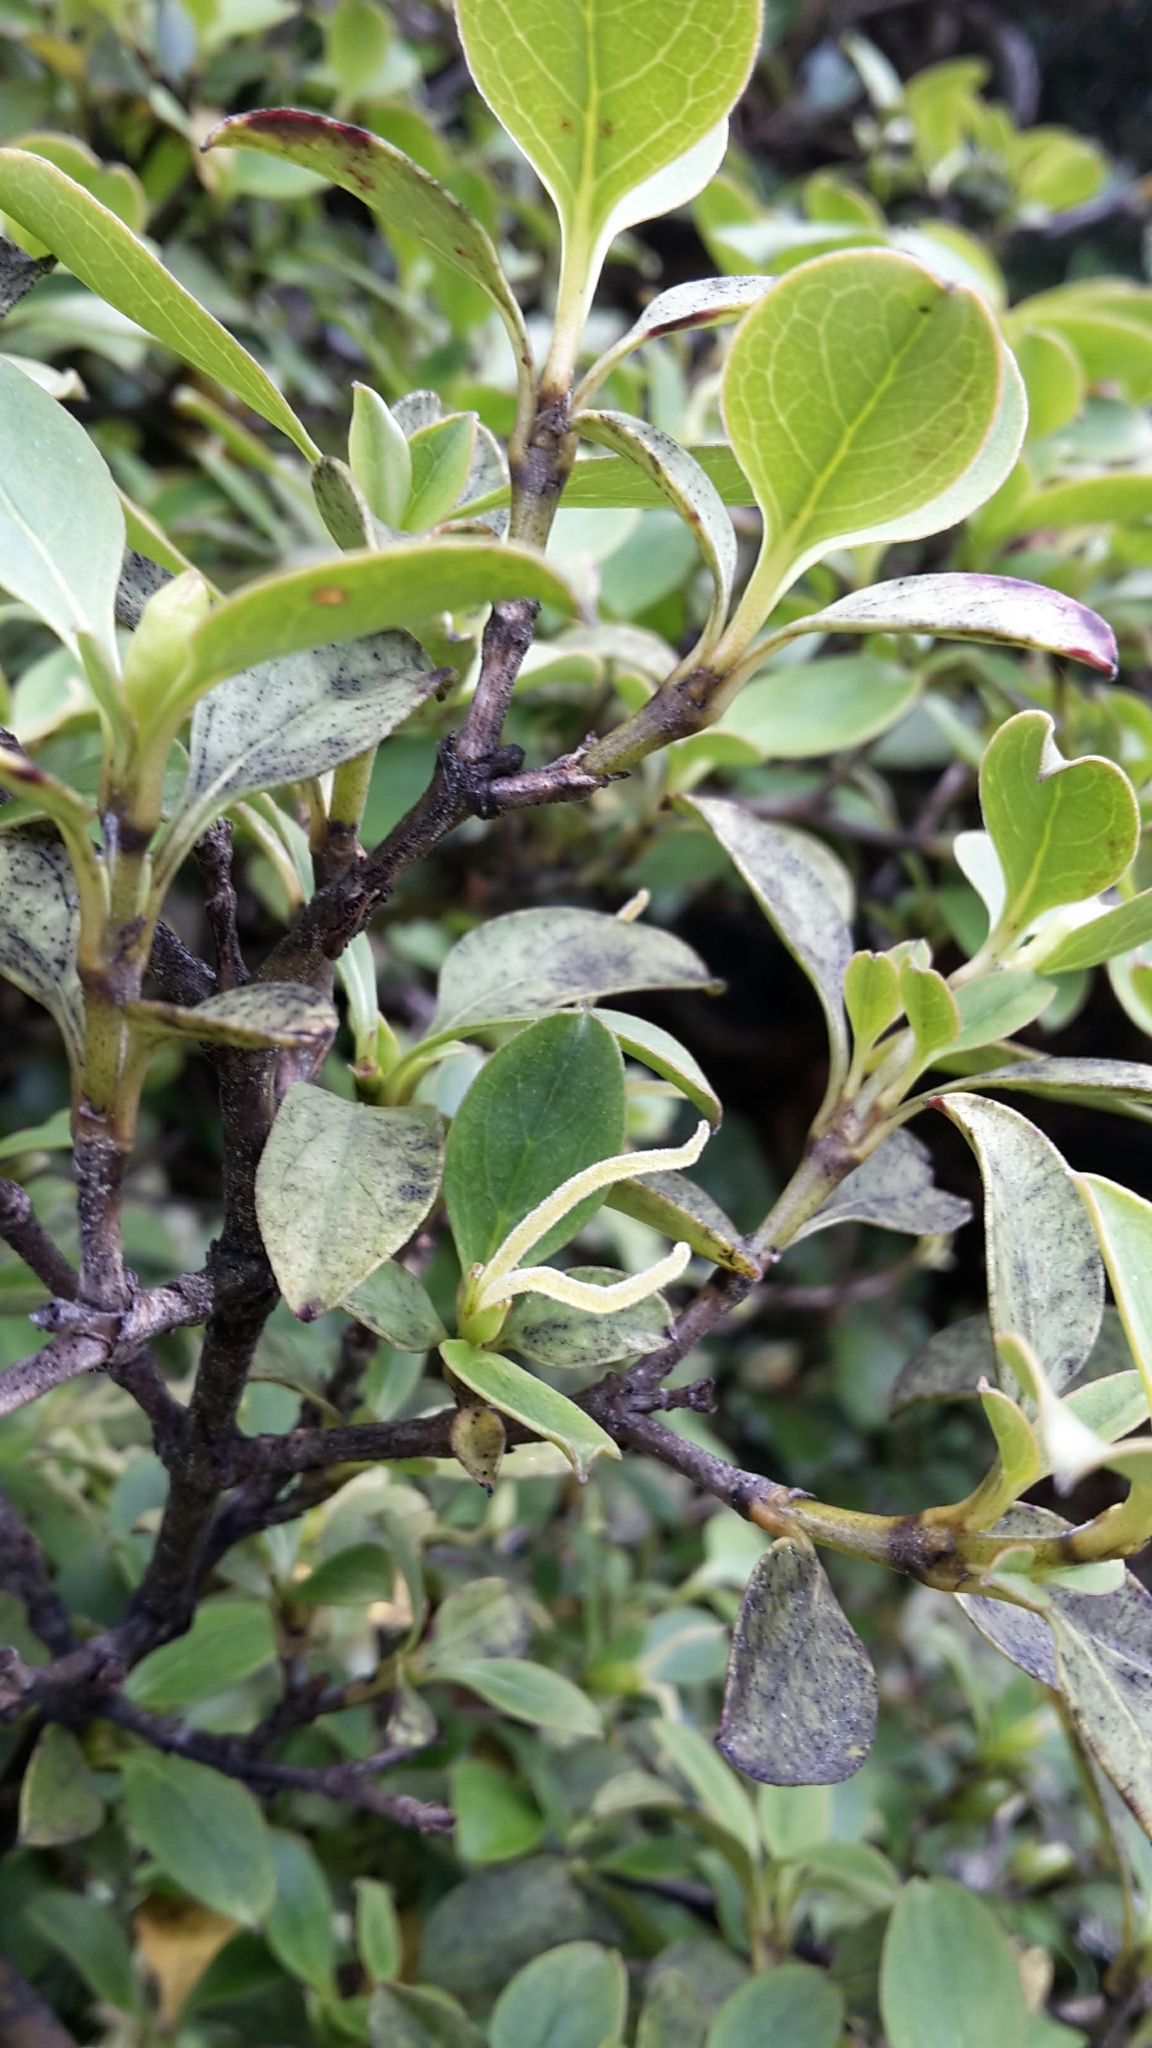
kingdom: Plantae
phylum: Tracheophyta
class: Magnoliopsida
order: Gentianales
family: Rubiaceae
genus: Coprosma
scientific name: Coprosma foetidissima
